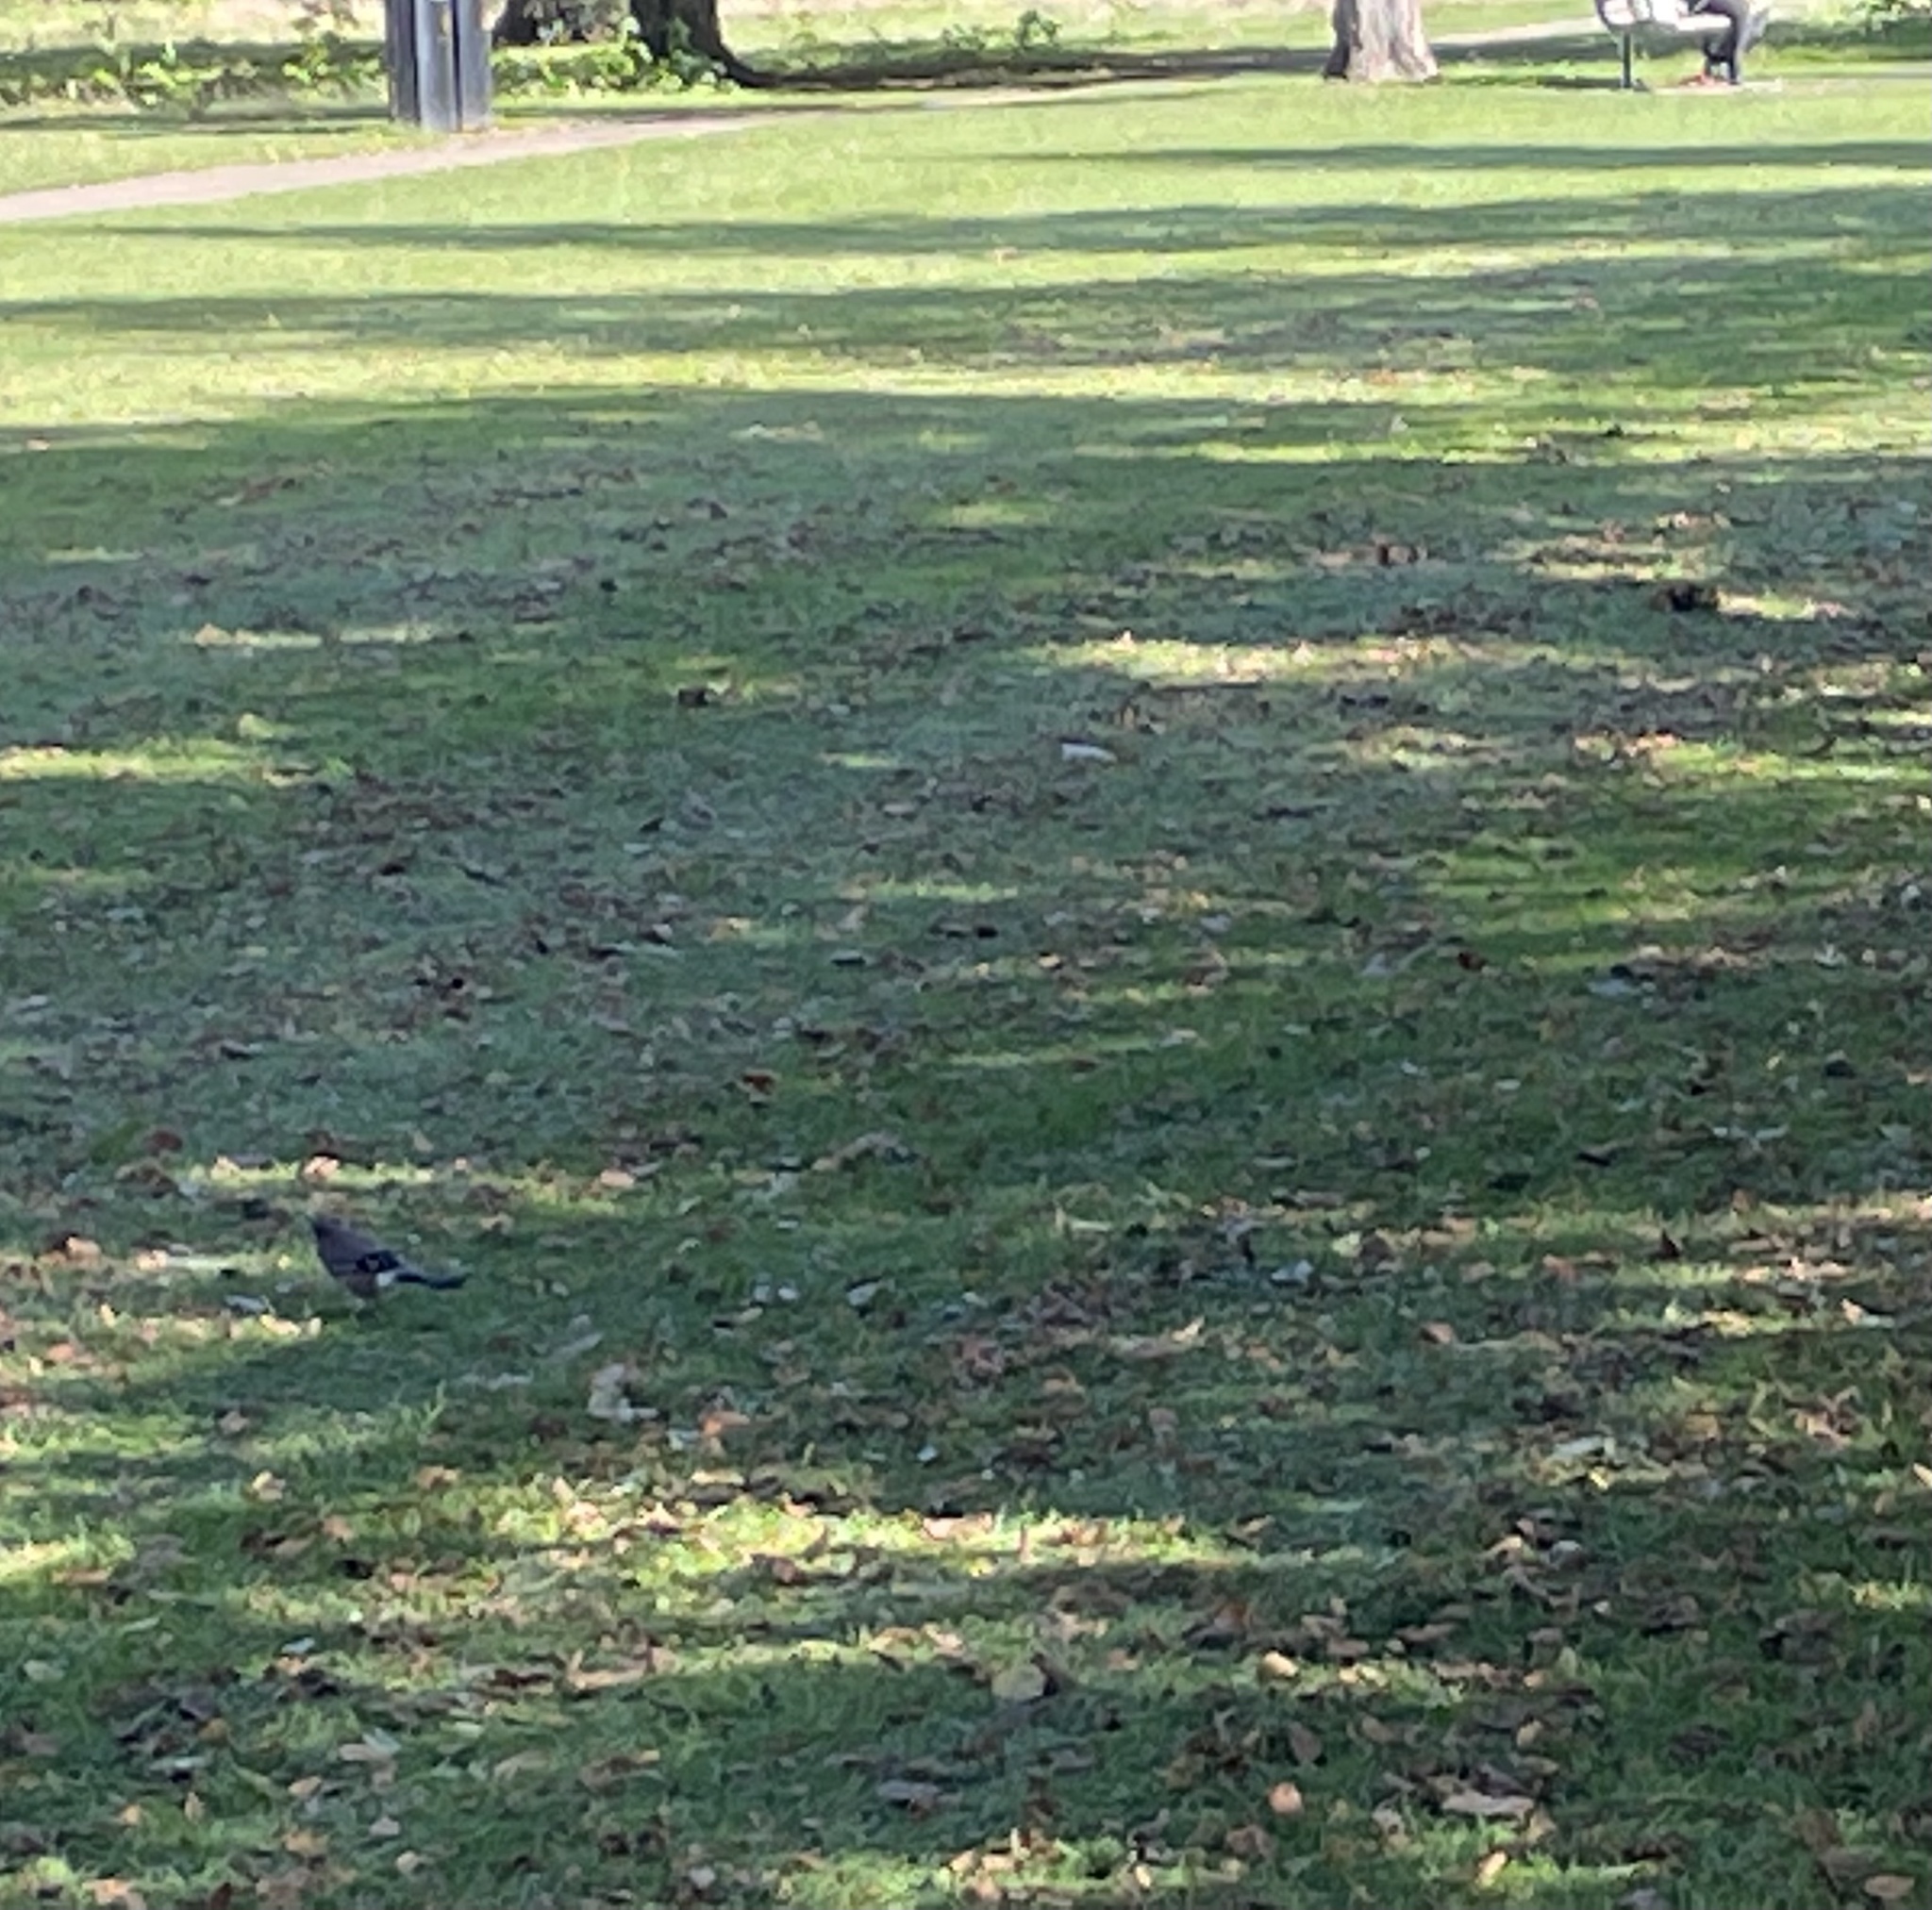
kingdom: Animalia
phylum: Chordata
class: Aves
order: Passeriformes
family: Corvidae
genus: Garrulus
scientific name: Garrulus glandarius
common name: Eurasian jay
